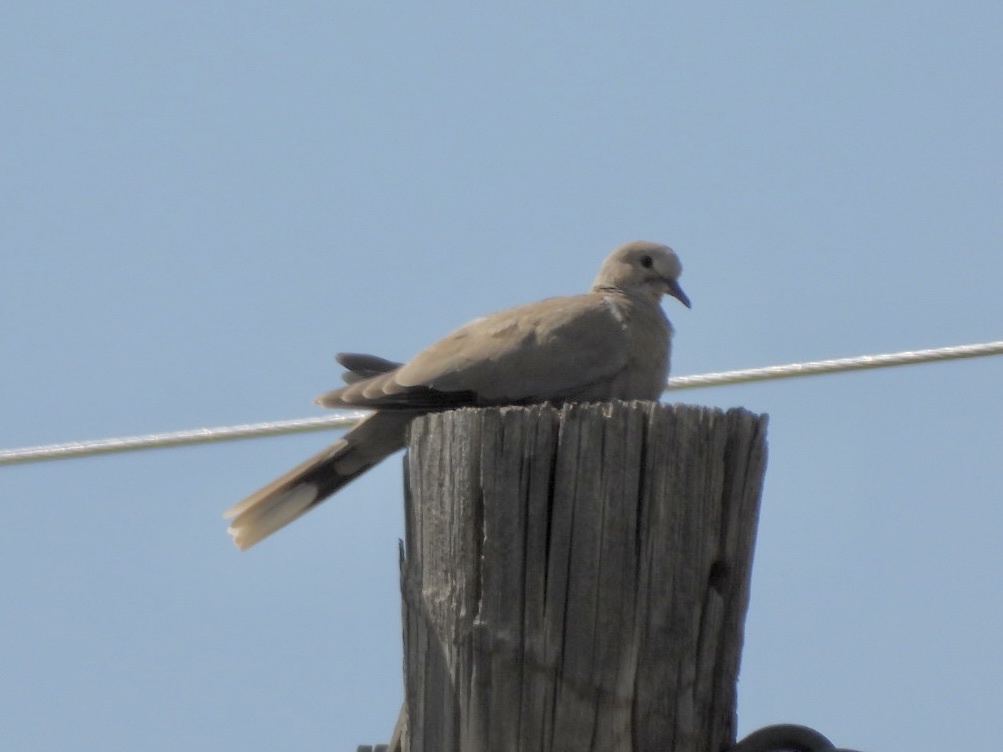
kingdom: Animalia
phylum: Chordata
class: Aves
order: Columbiformes
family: Columbidae
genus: Streptopelia
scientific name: Streptopelia decaocto
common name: Eurasian collared dove
